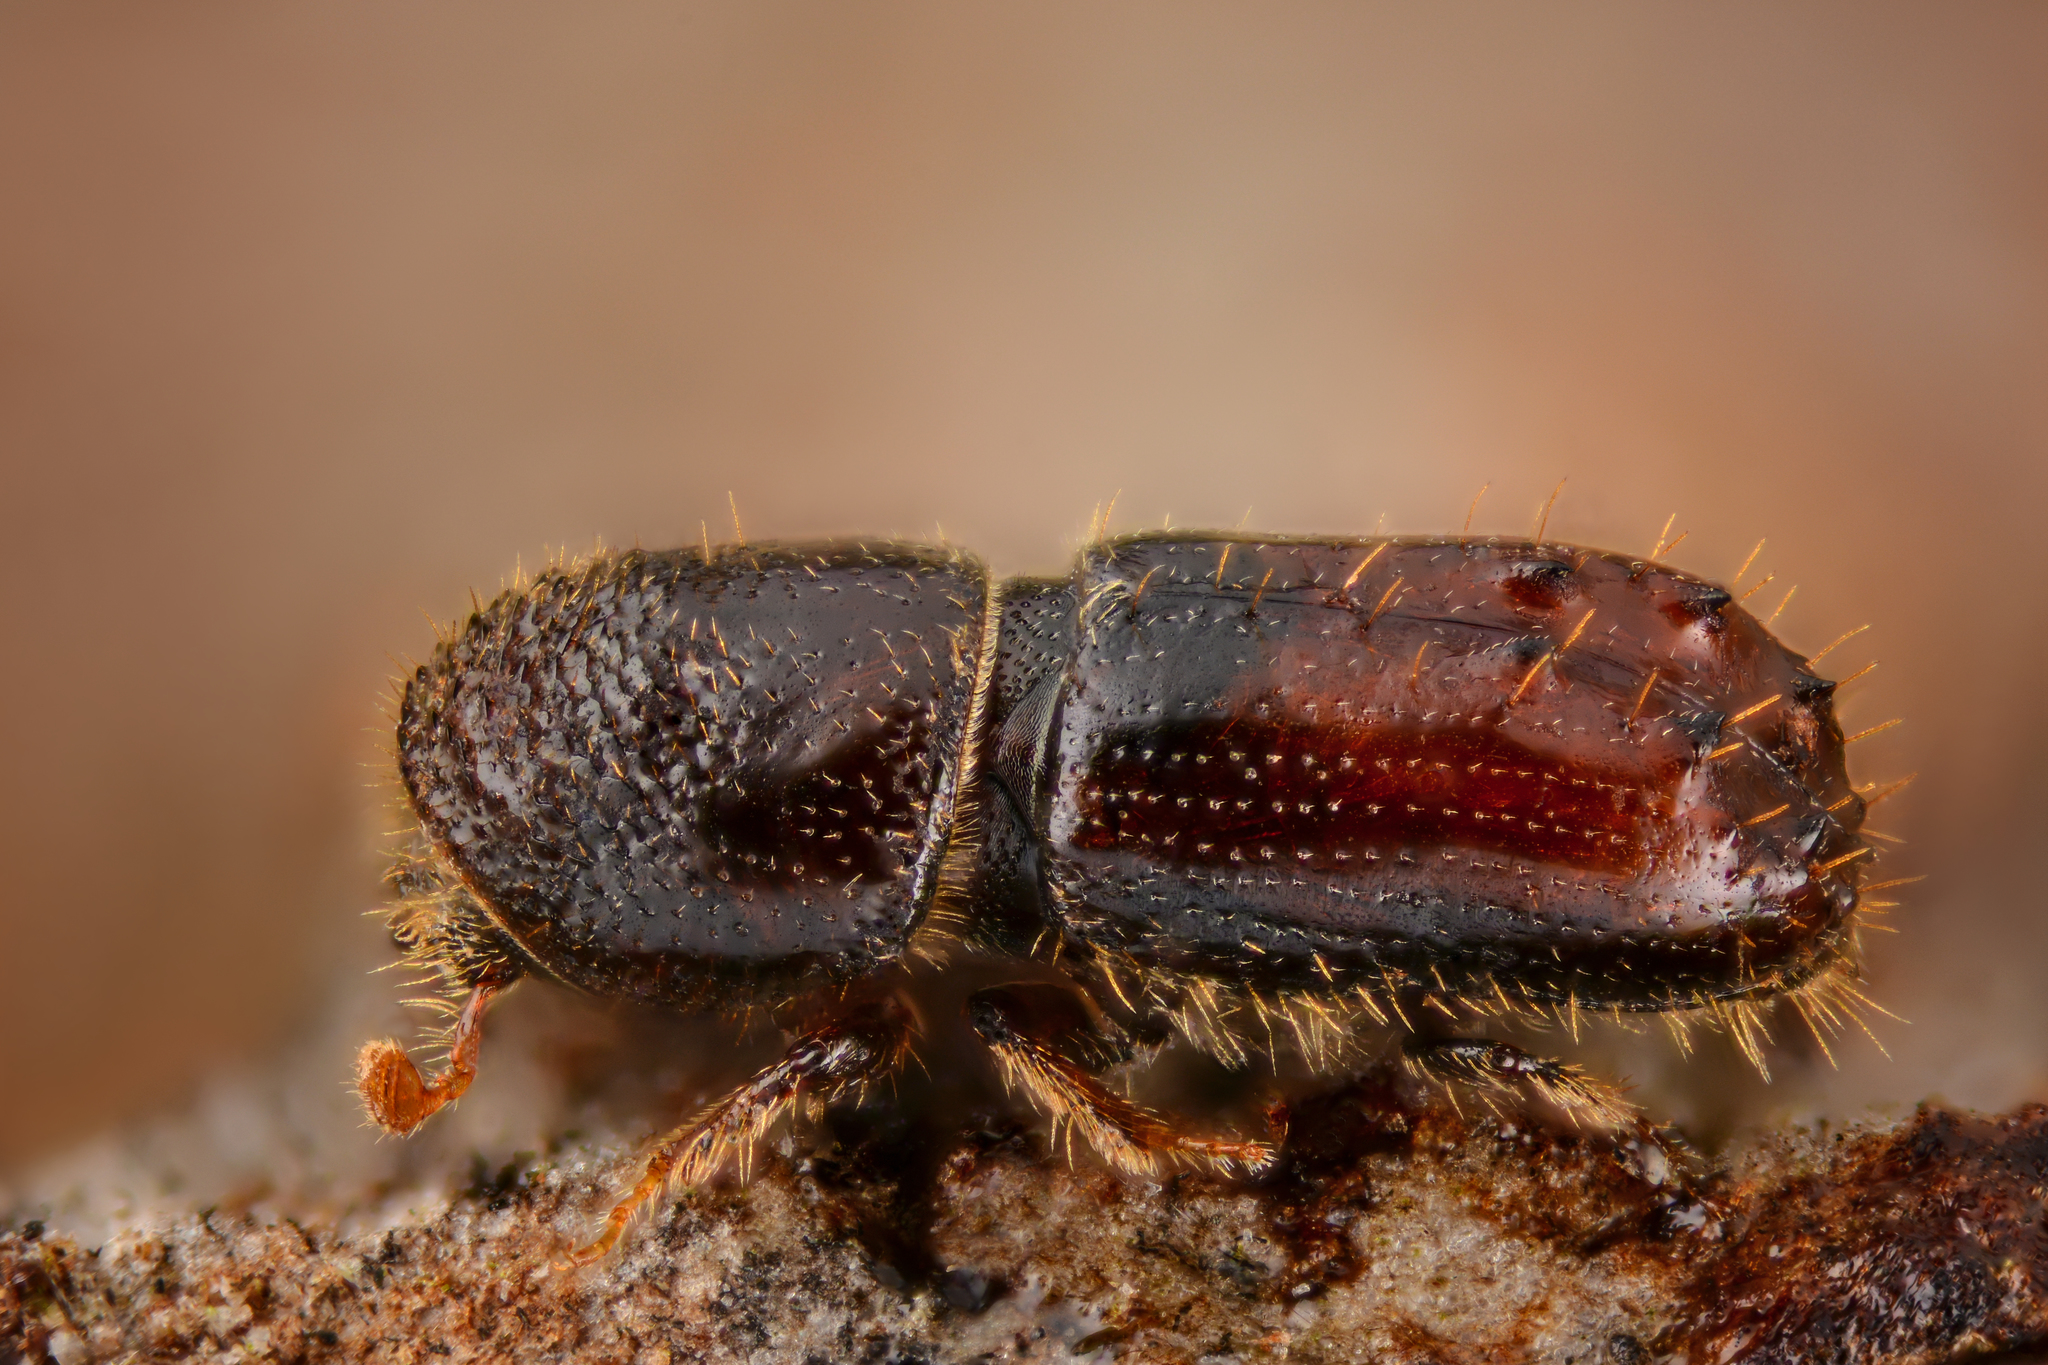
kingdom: Animalia
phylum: Arthropoda
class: Insecta
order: Coleoptera
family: Curculionidae
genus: Pityogenes
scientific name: Pityogenes chalcographus
